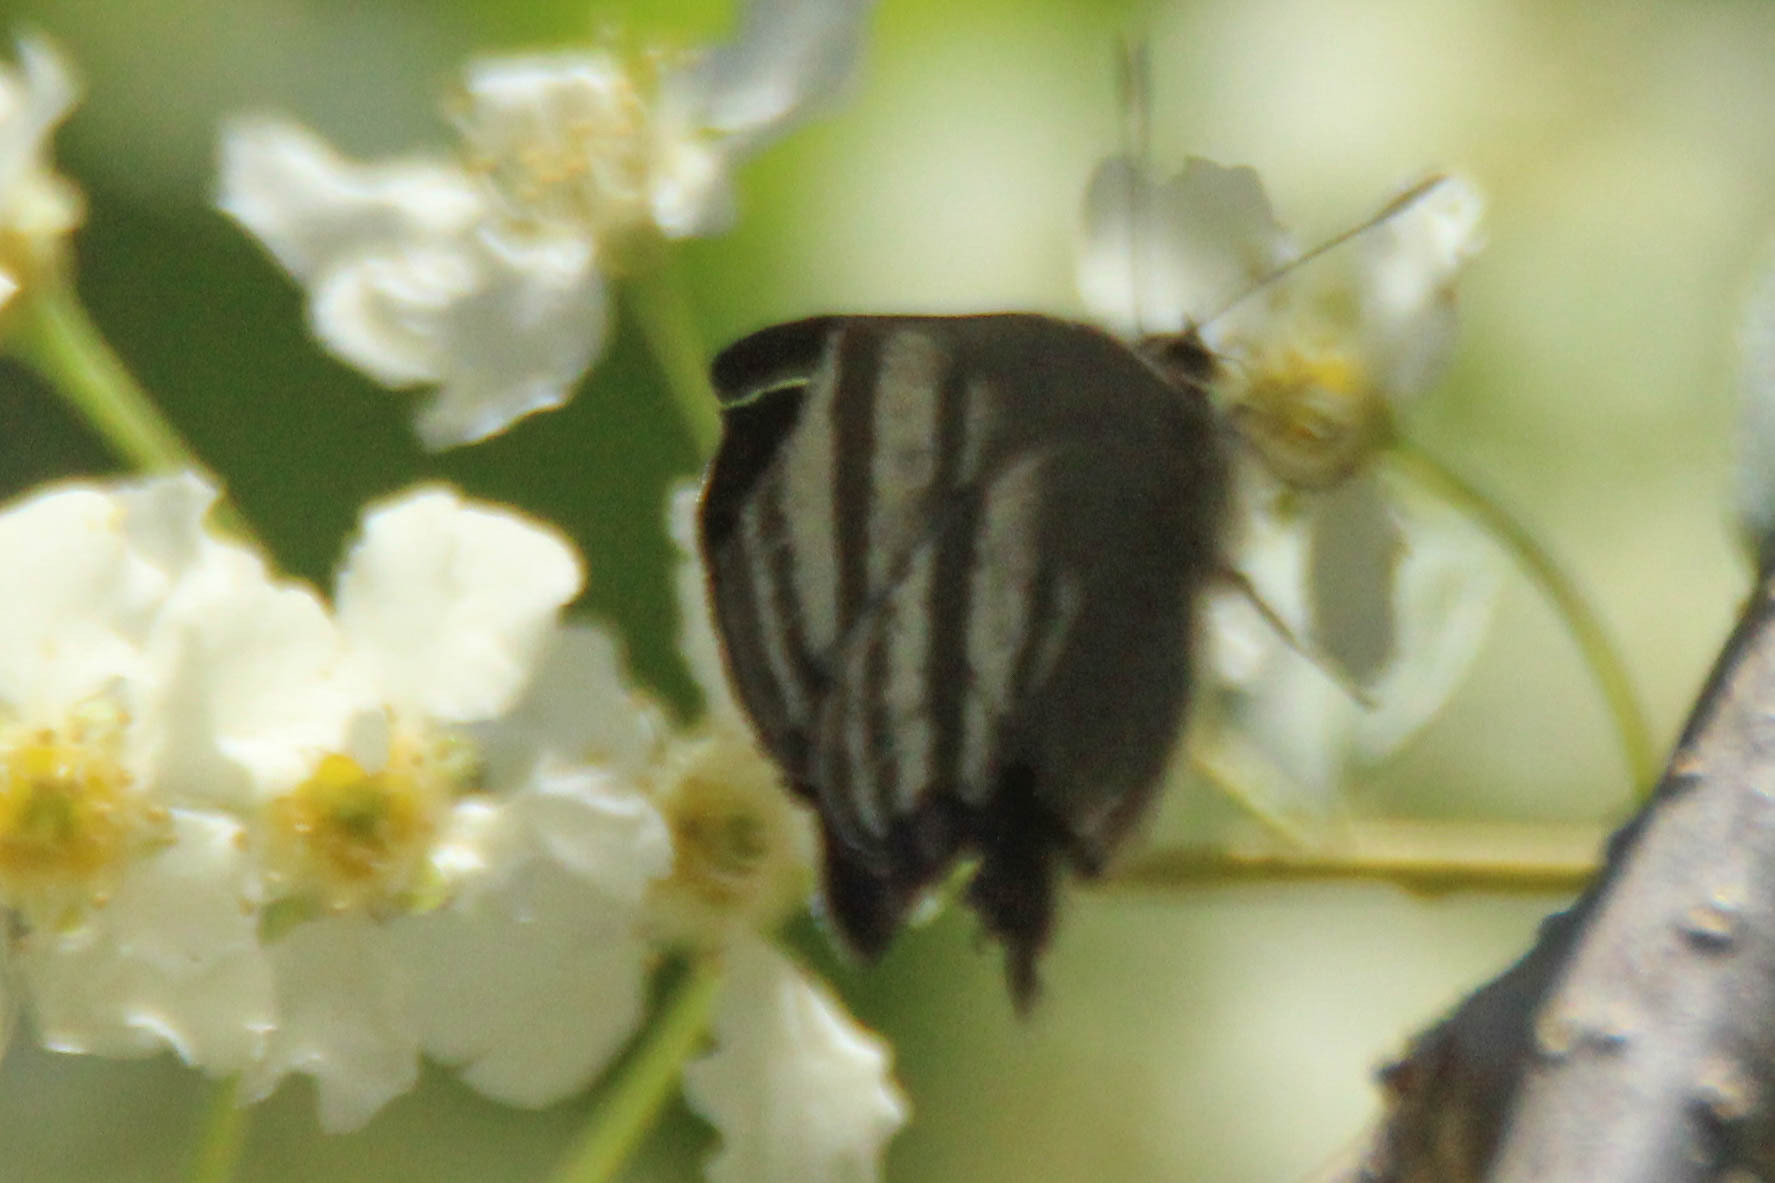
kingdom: Animalia
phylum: Arthropoda
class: Insecta
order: Lepidoptera
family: Lycaenidae
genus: Rapala
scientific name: Rapala arata
